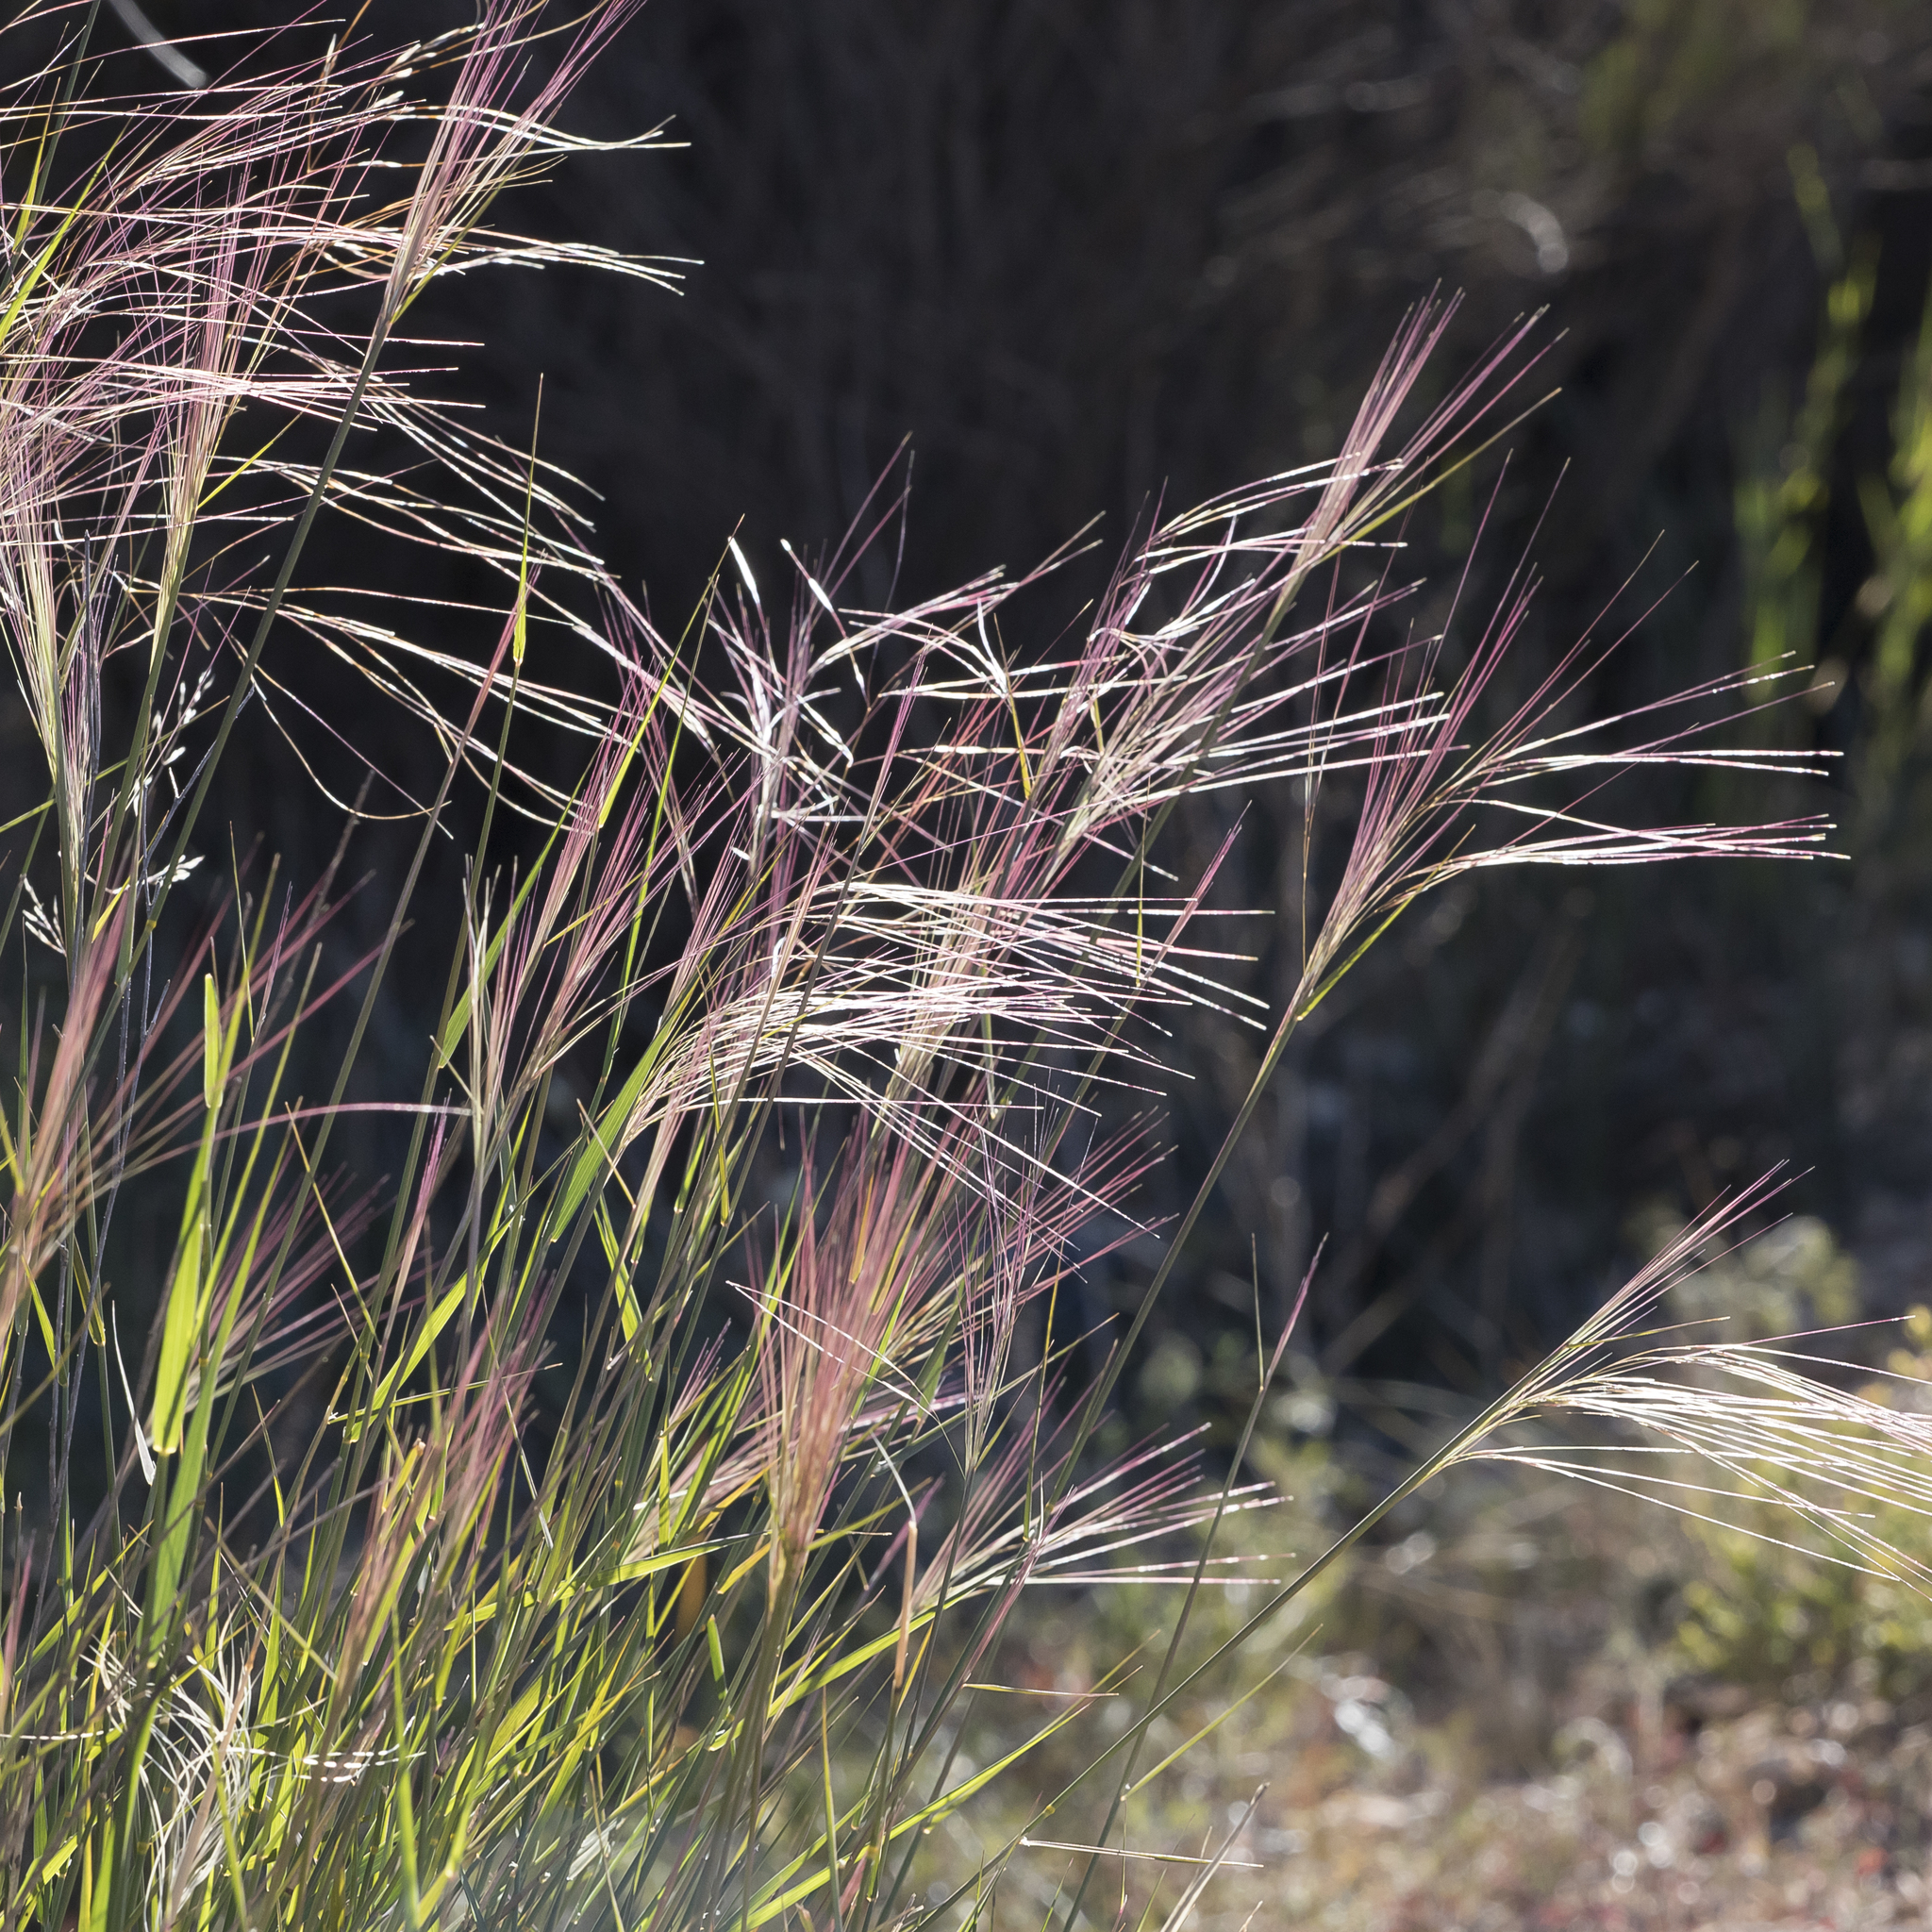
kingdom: Plantae
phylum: Tracheophyta
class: Liliopsida
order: Poales
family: Poaceae
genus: Austrostipa
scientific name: Austrostipa platychaeta
